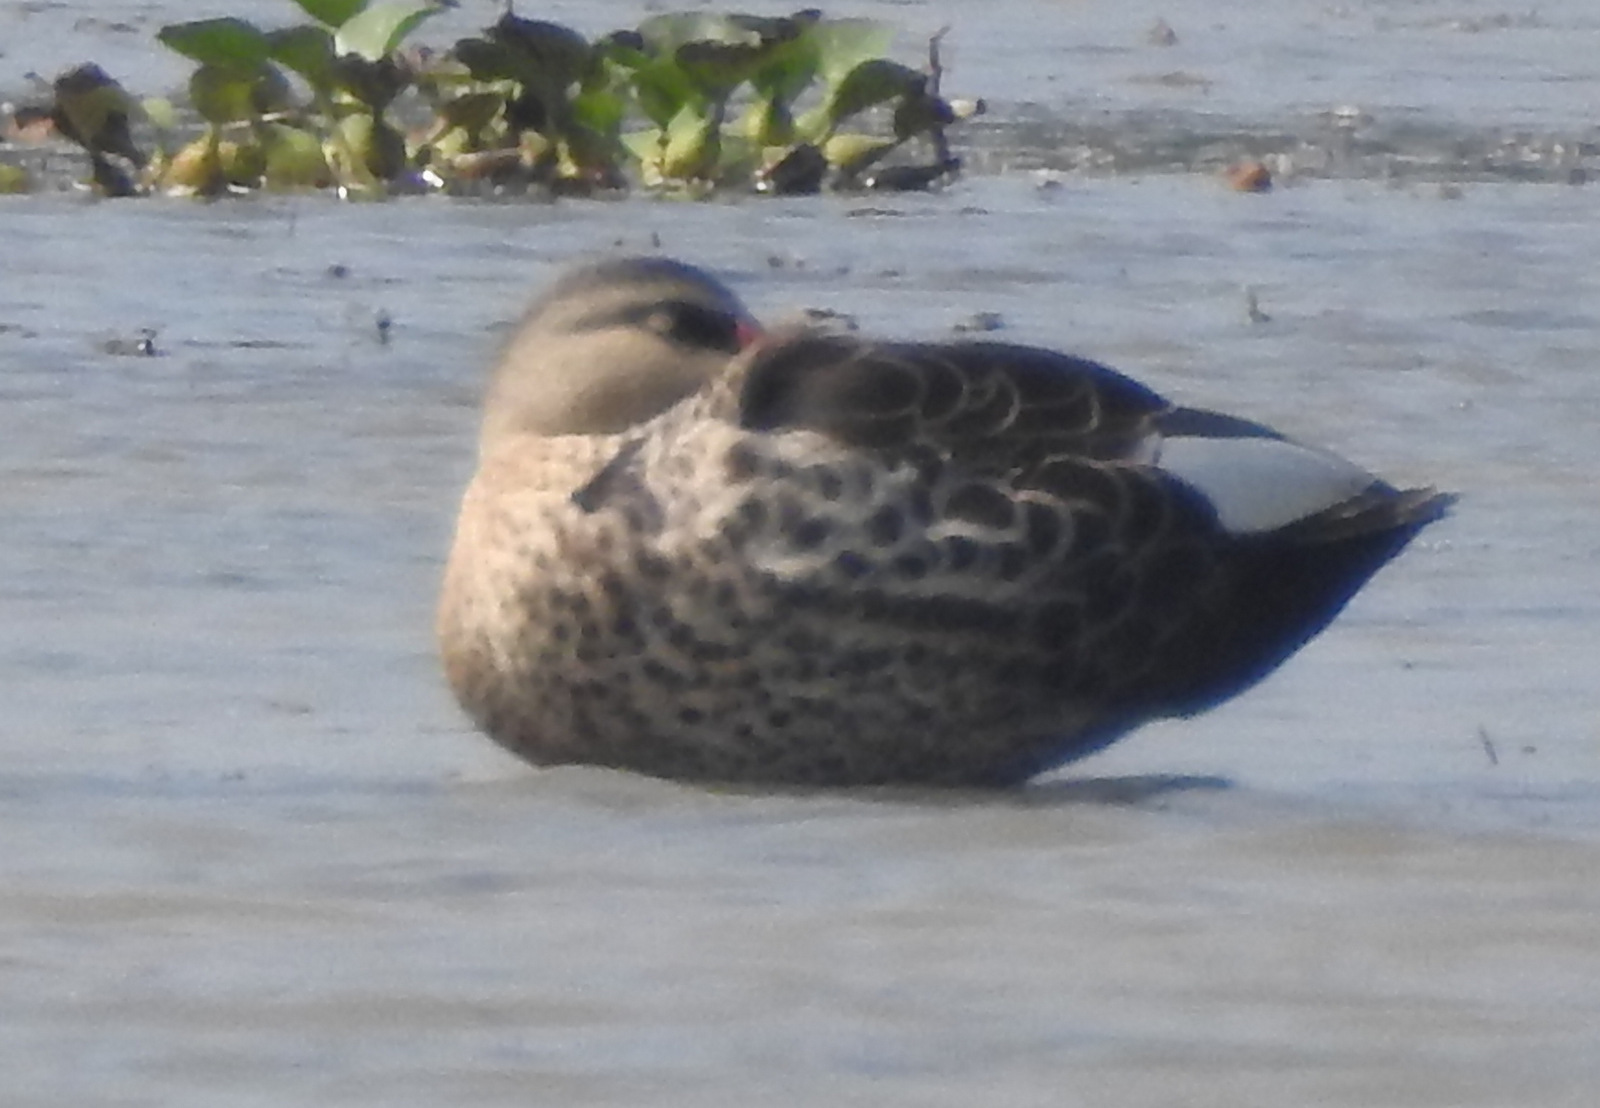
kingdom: Animalia
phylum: Chordata
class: Aves
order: Anseriformes
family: Anatidae
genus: Anas
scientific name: Anas poecilorhyncha
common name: Indian spot-billed duck
